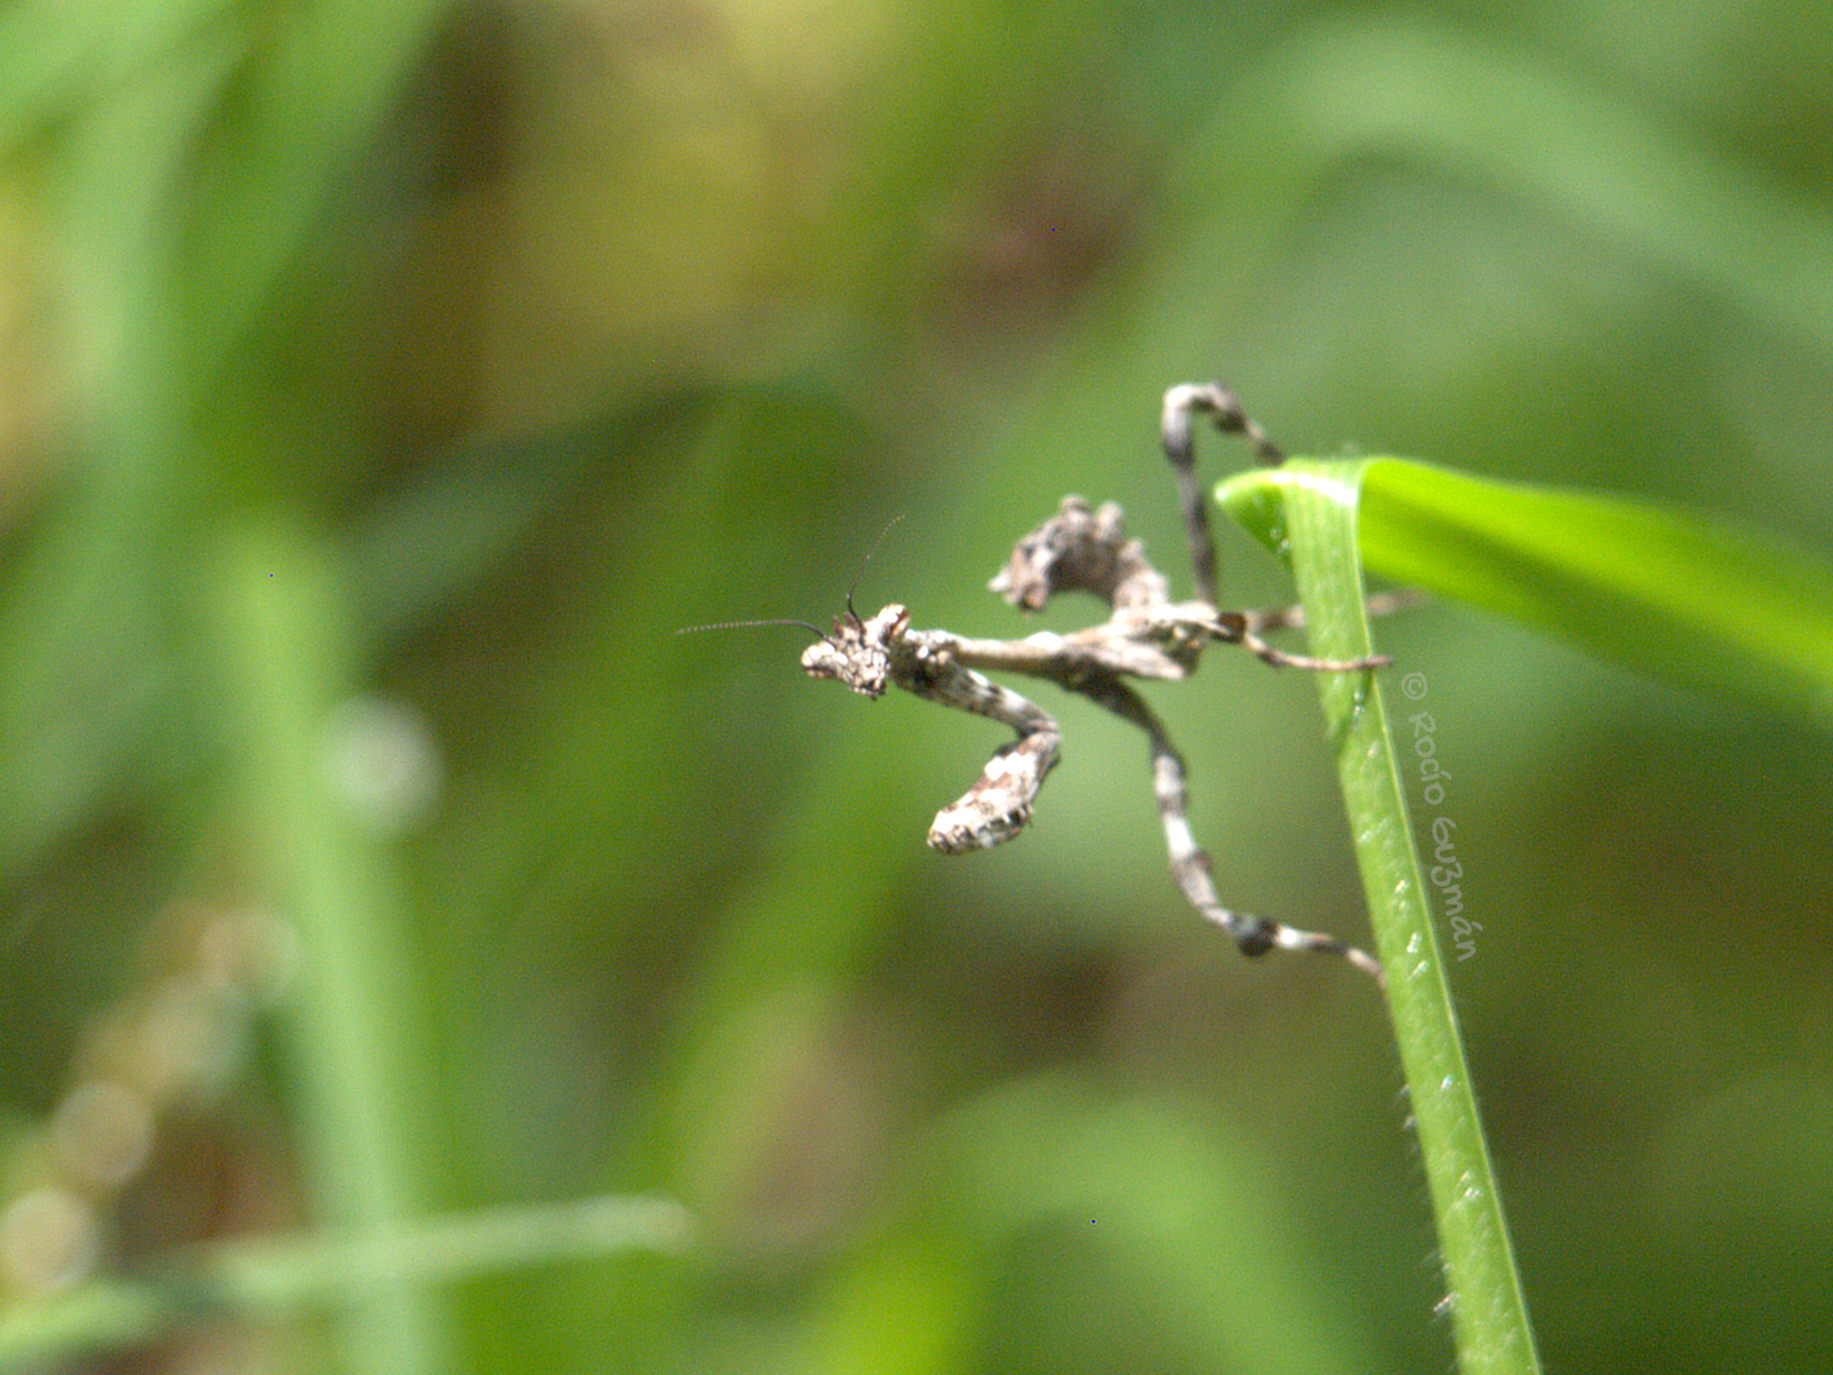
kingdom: Animalia
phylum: Arthropoda
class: Insecta
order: Mantodea
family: Mantidae
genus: Pseudovates
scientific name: Pseudovates tolteca
